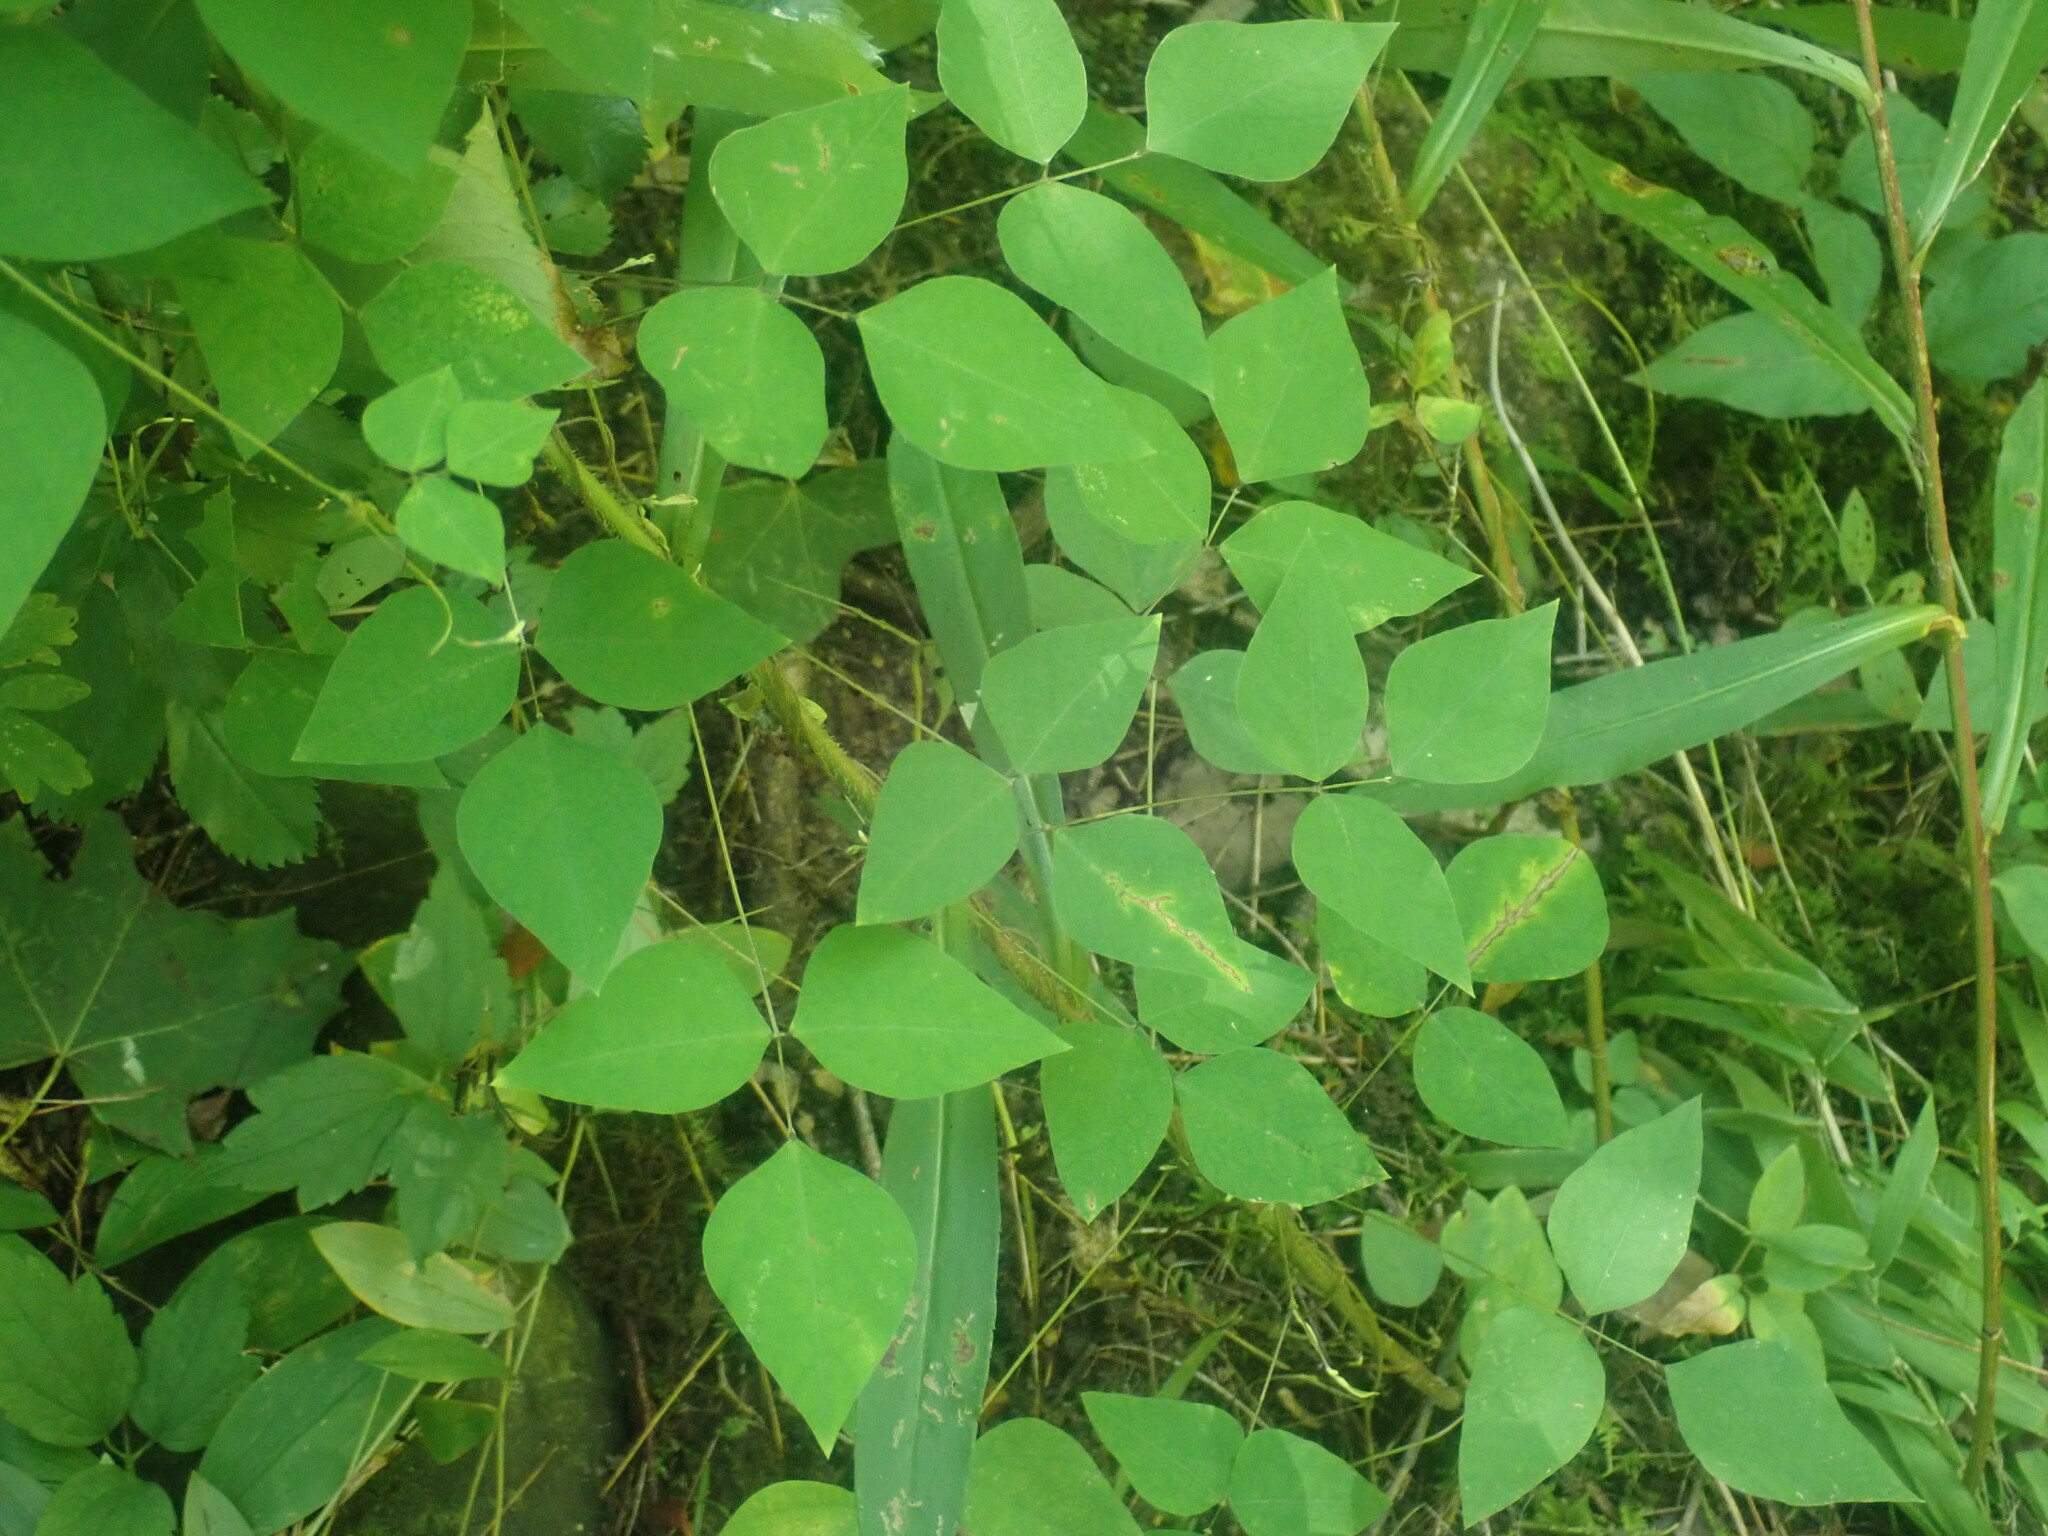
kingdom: Plantae
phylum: Tracheophyta
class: Magnoliopsida
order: Fabales
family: Fabaceae
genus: Amphicarpaea
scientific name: Amphicarpaea bracteata
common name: American hog peanut
